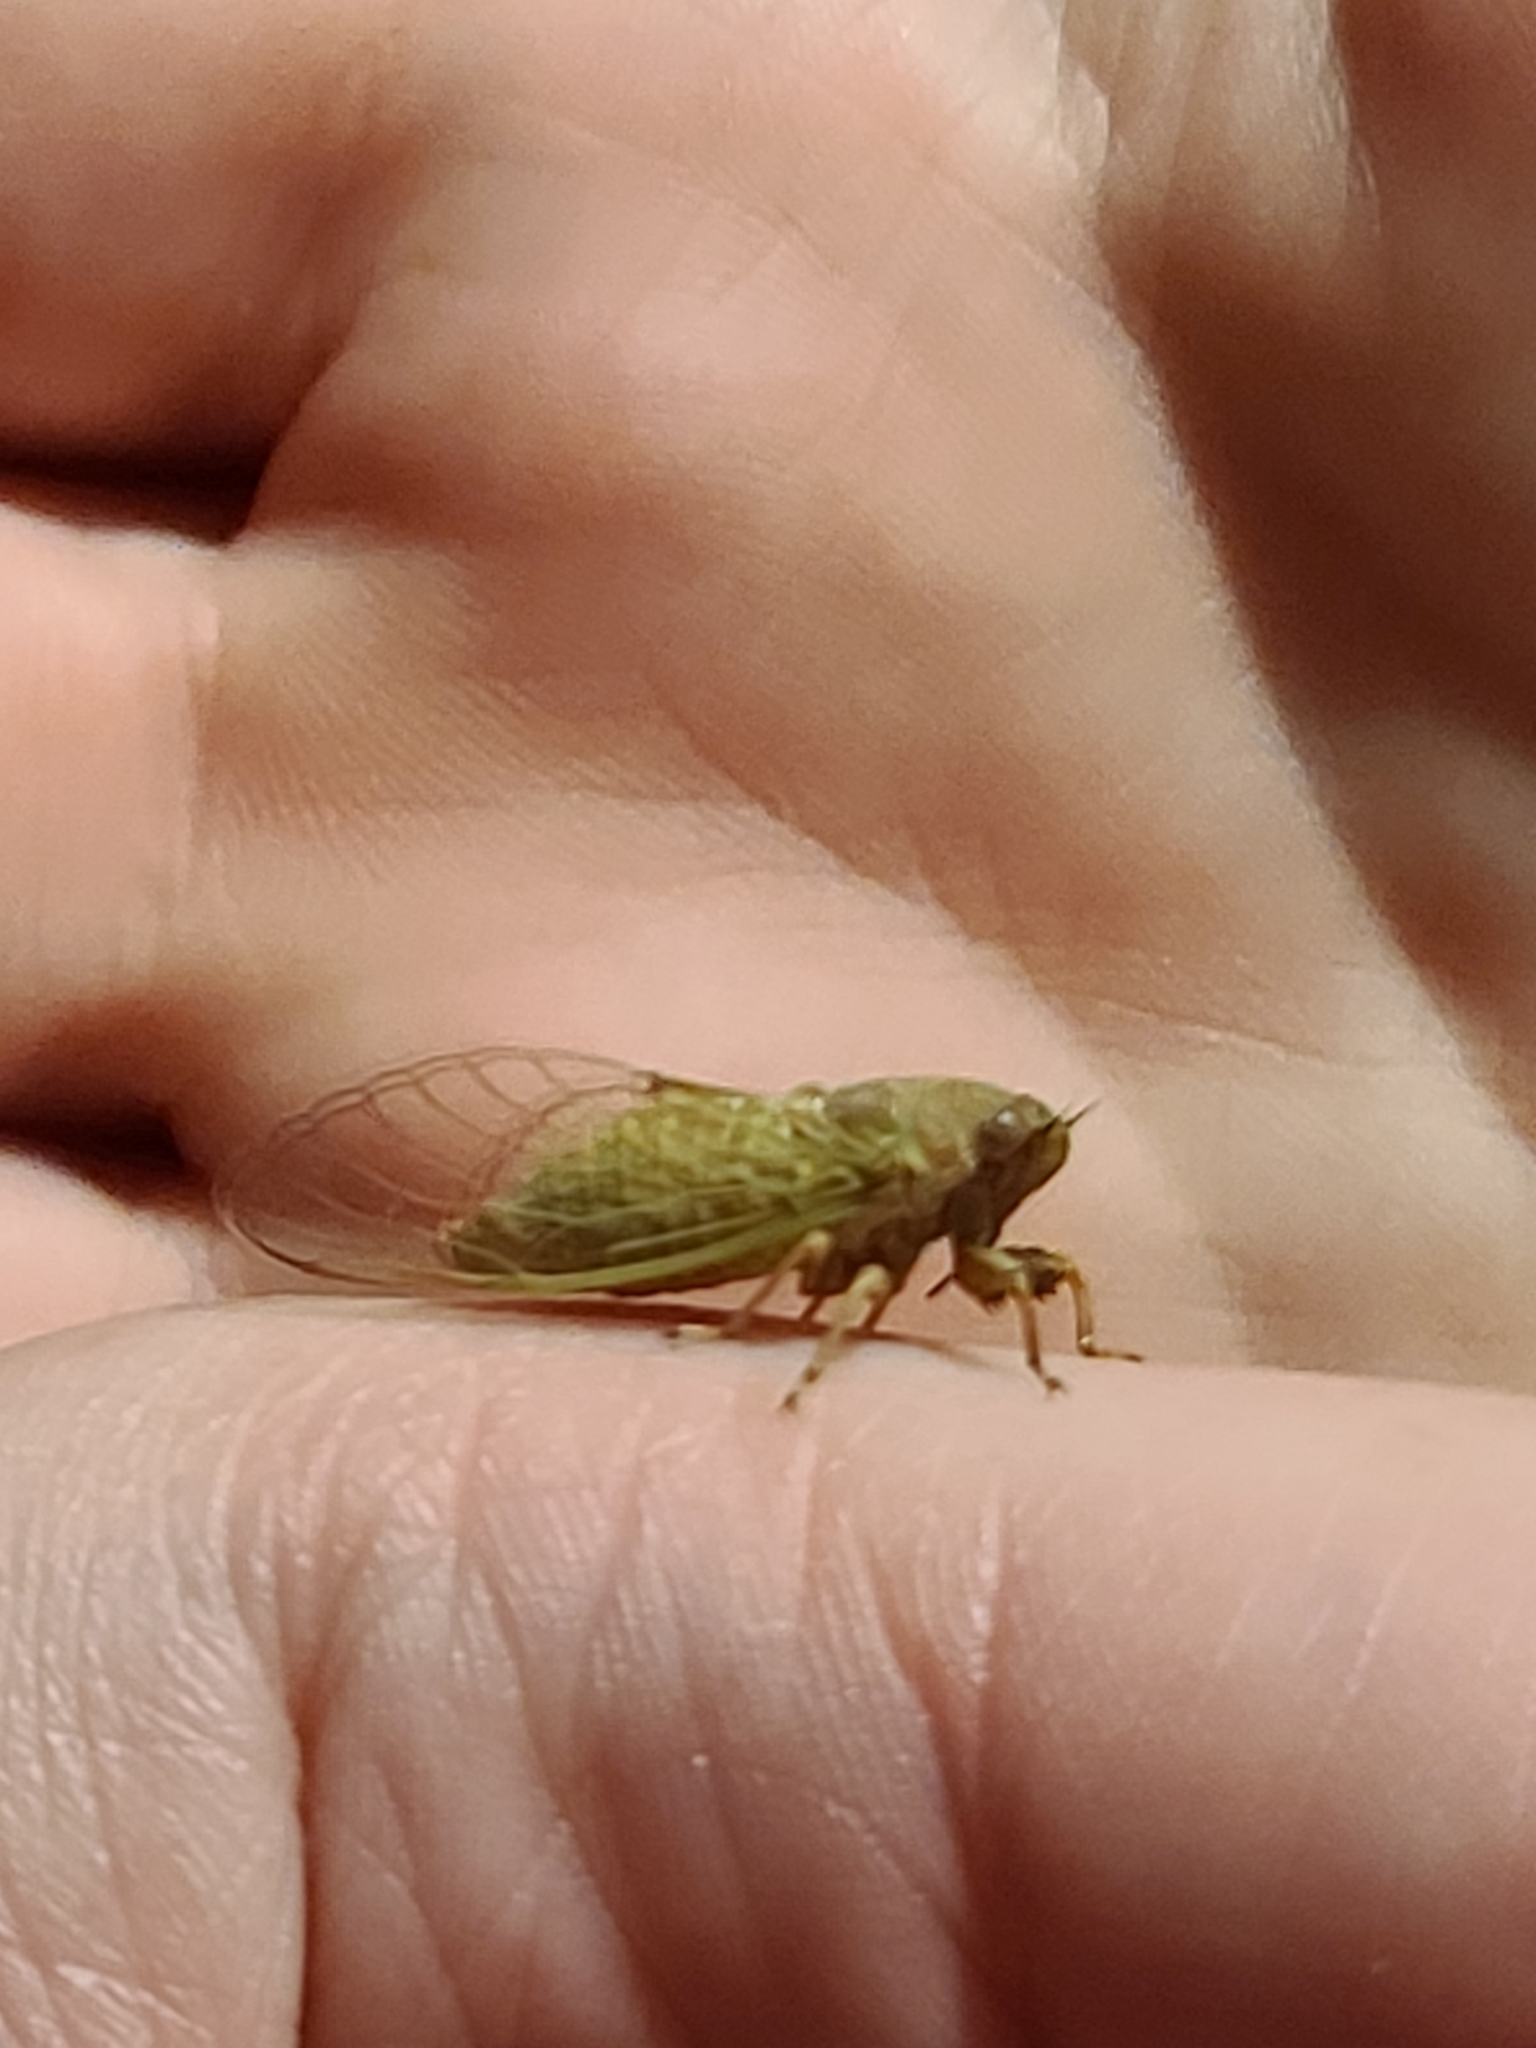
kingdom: Animalia
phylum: Arthropoda
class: Insecta
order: Hemiptera
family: Cicadidae
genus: Cicadettana
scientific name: Cicadettana calliope
